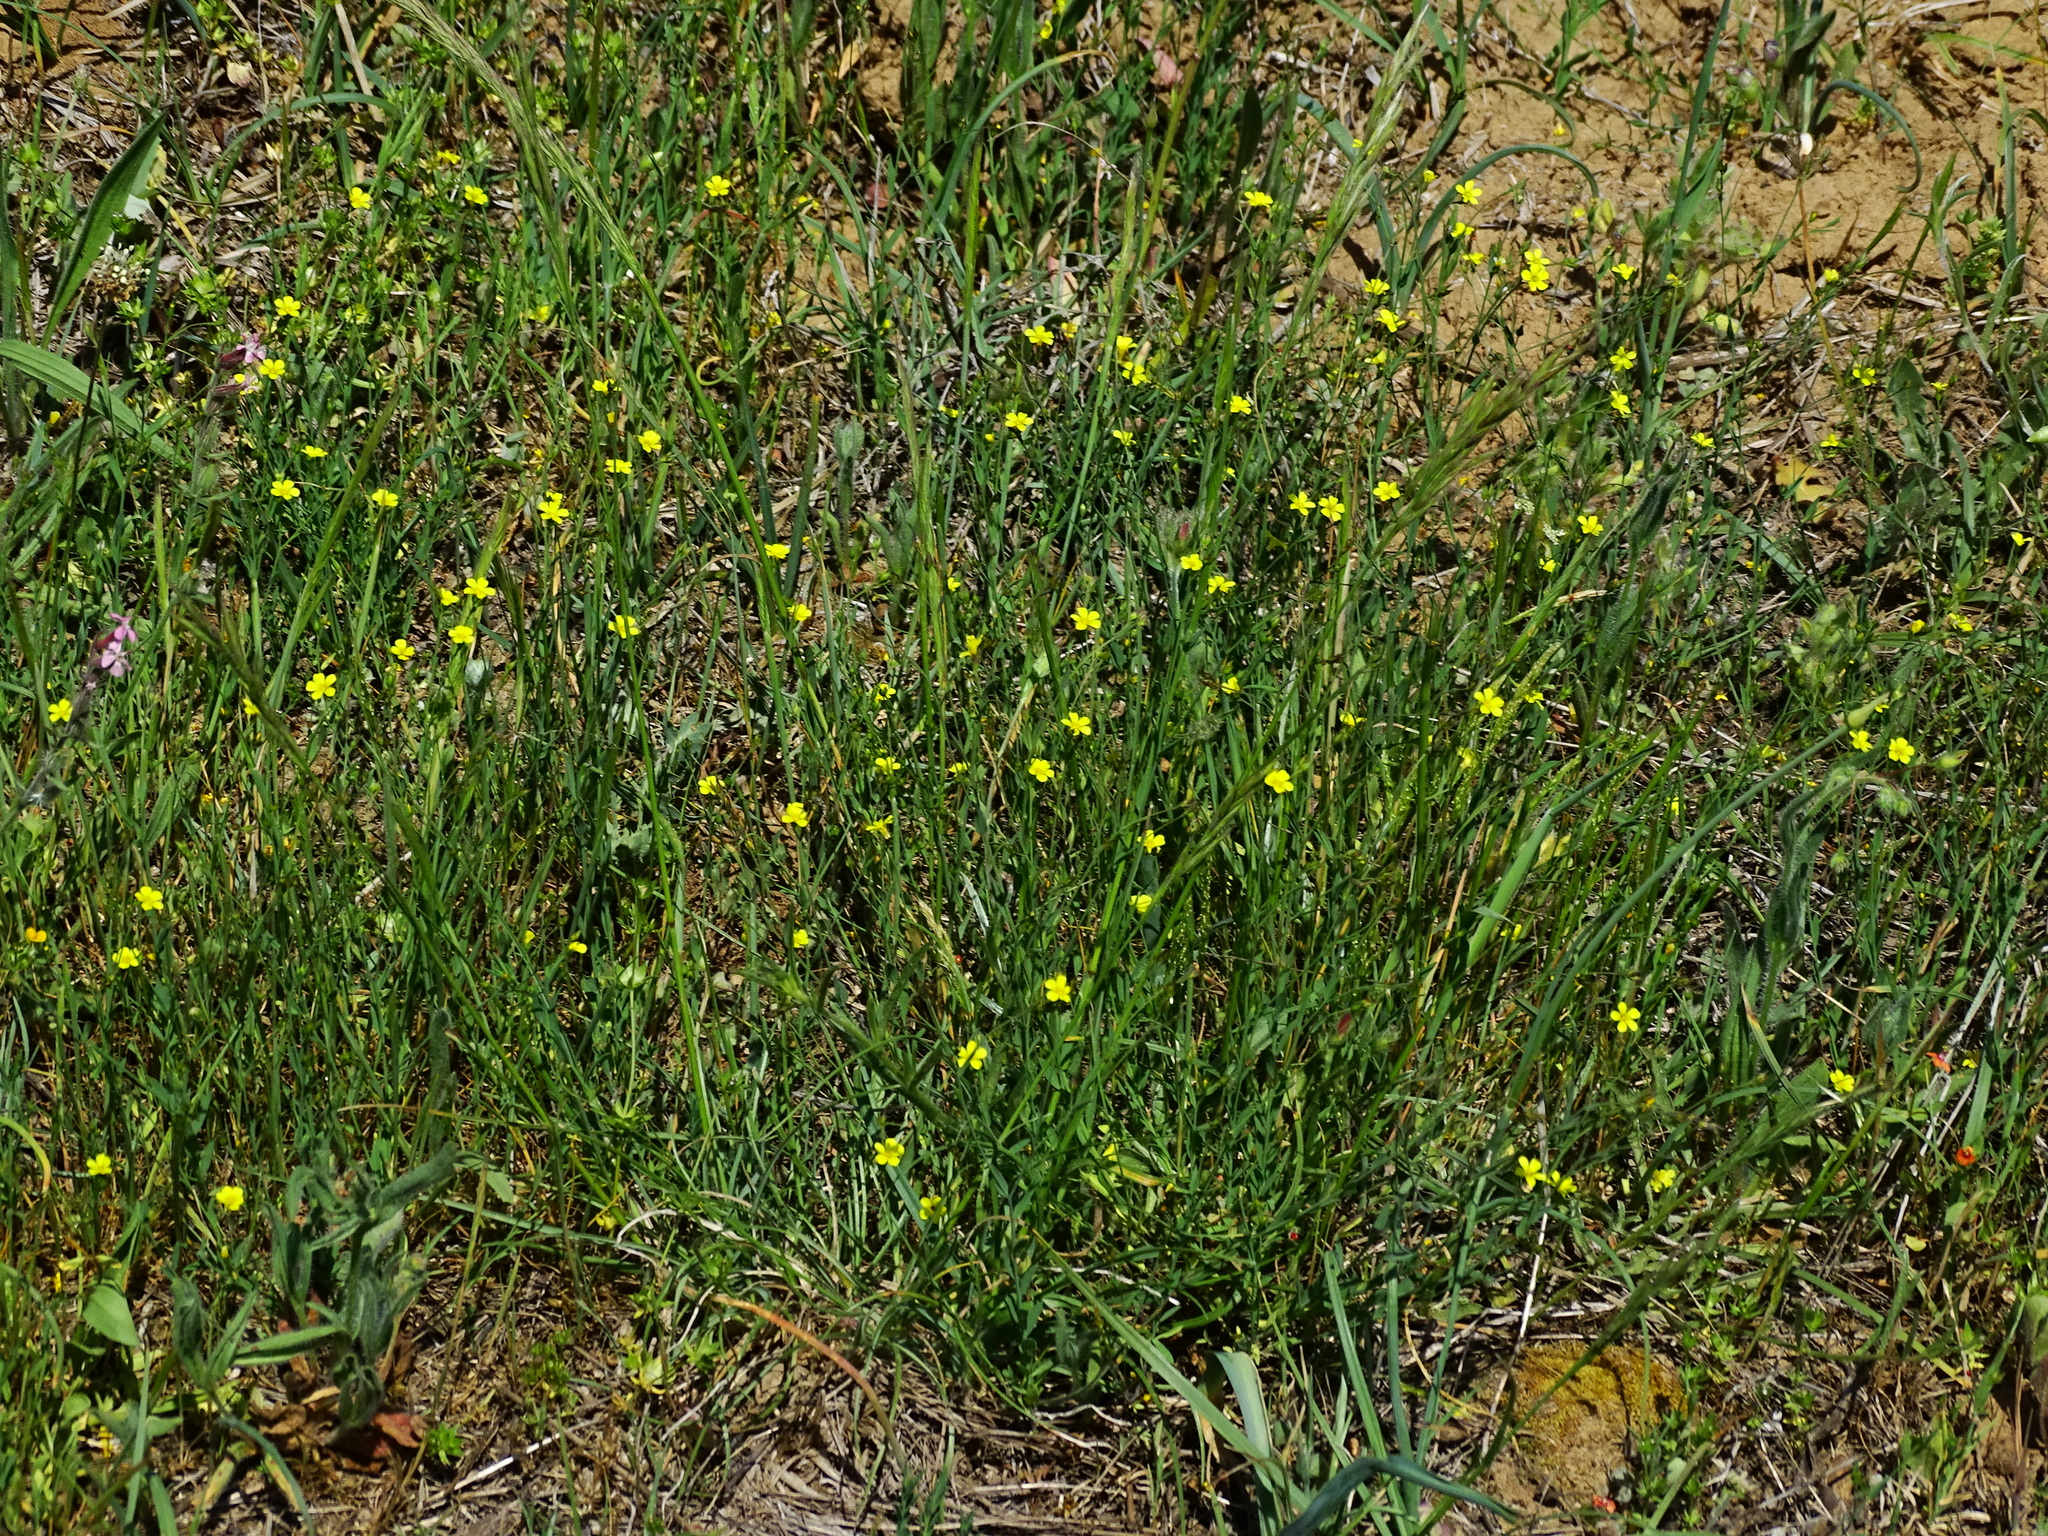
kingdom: Plantae
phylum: Tracheophyta
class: Magnoliopsida
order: Malpighiales
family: Linaceae
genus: Linum
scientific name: Linum trigynum
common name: French flax
